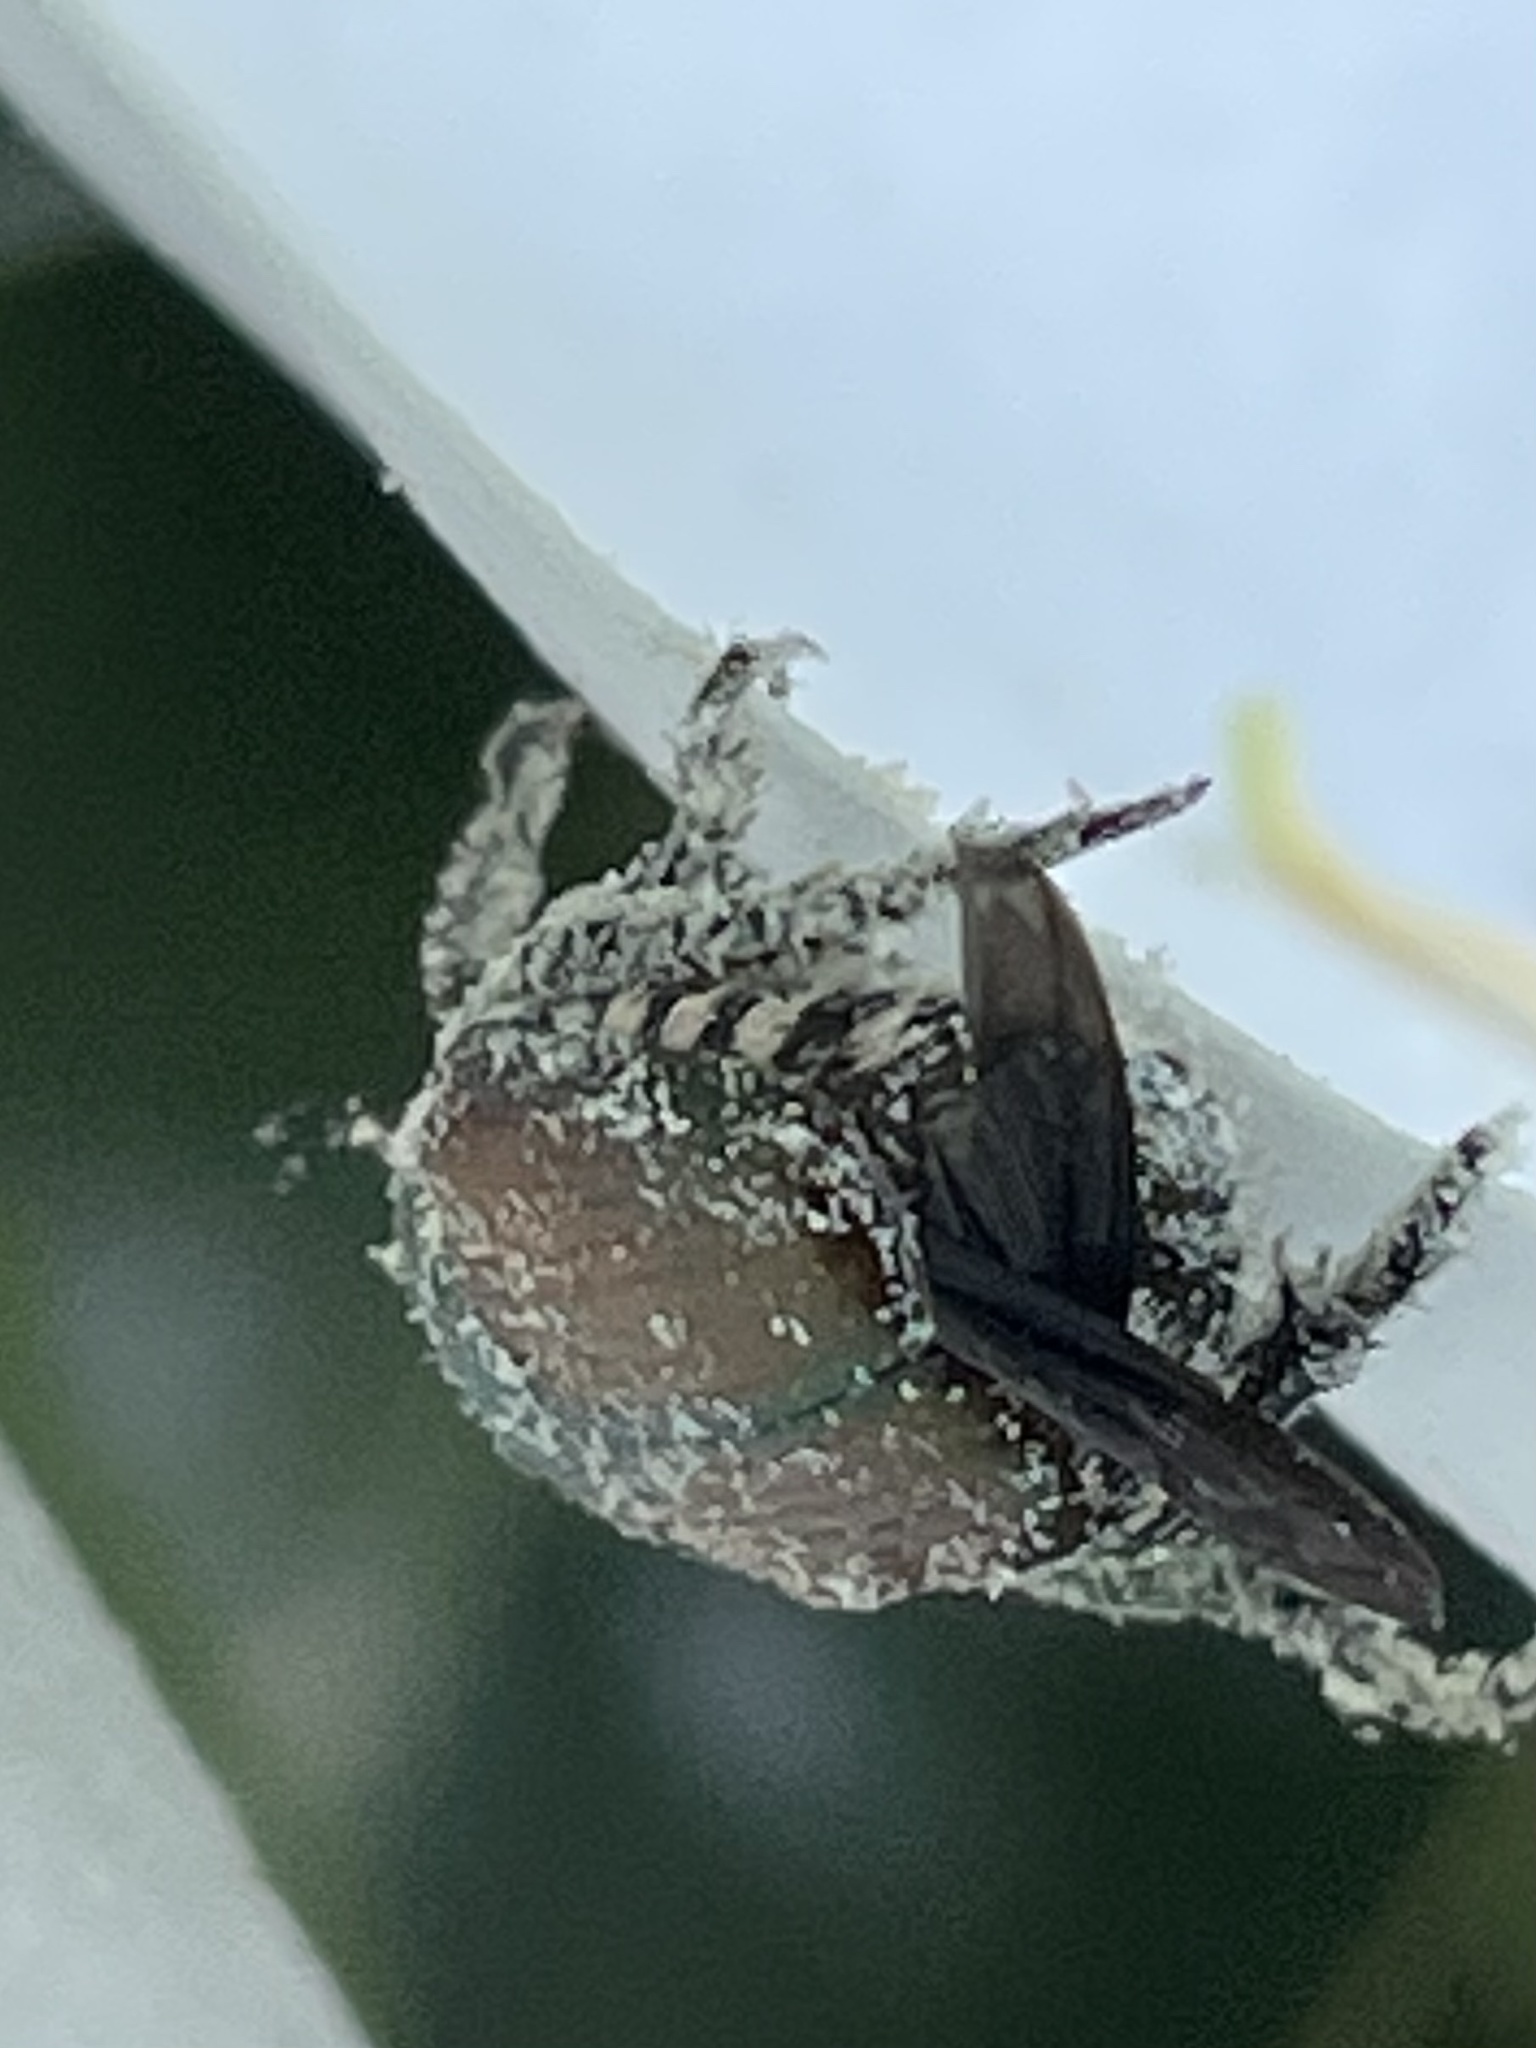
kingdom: Animalia
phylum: Arthropoda
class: Insecta
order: Coleoptera
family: Scarabaeidae
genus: Popillia
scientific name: Popillia japonica
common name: Japanese beetle
